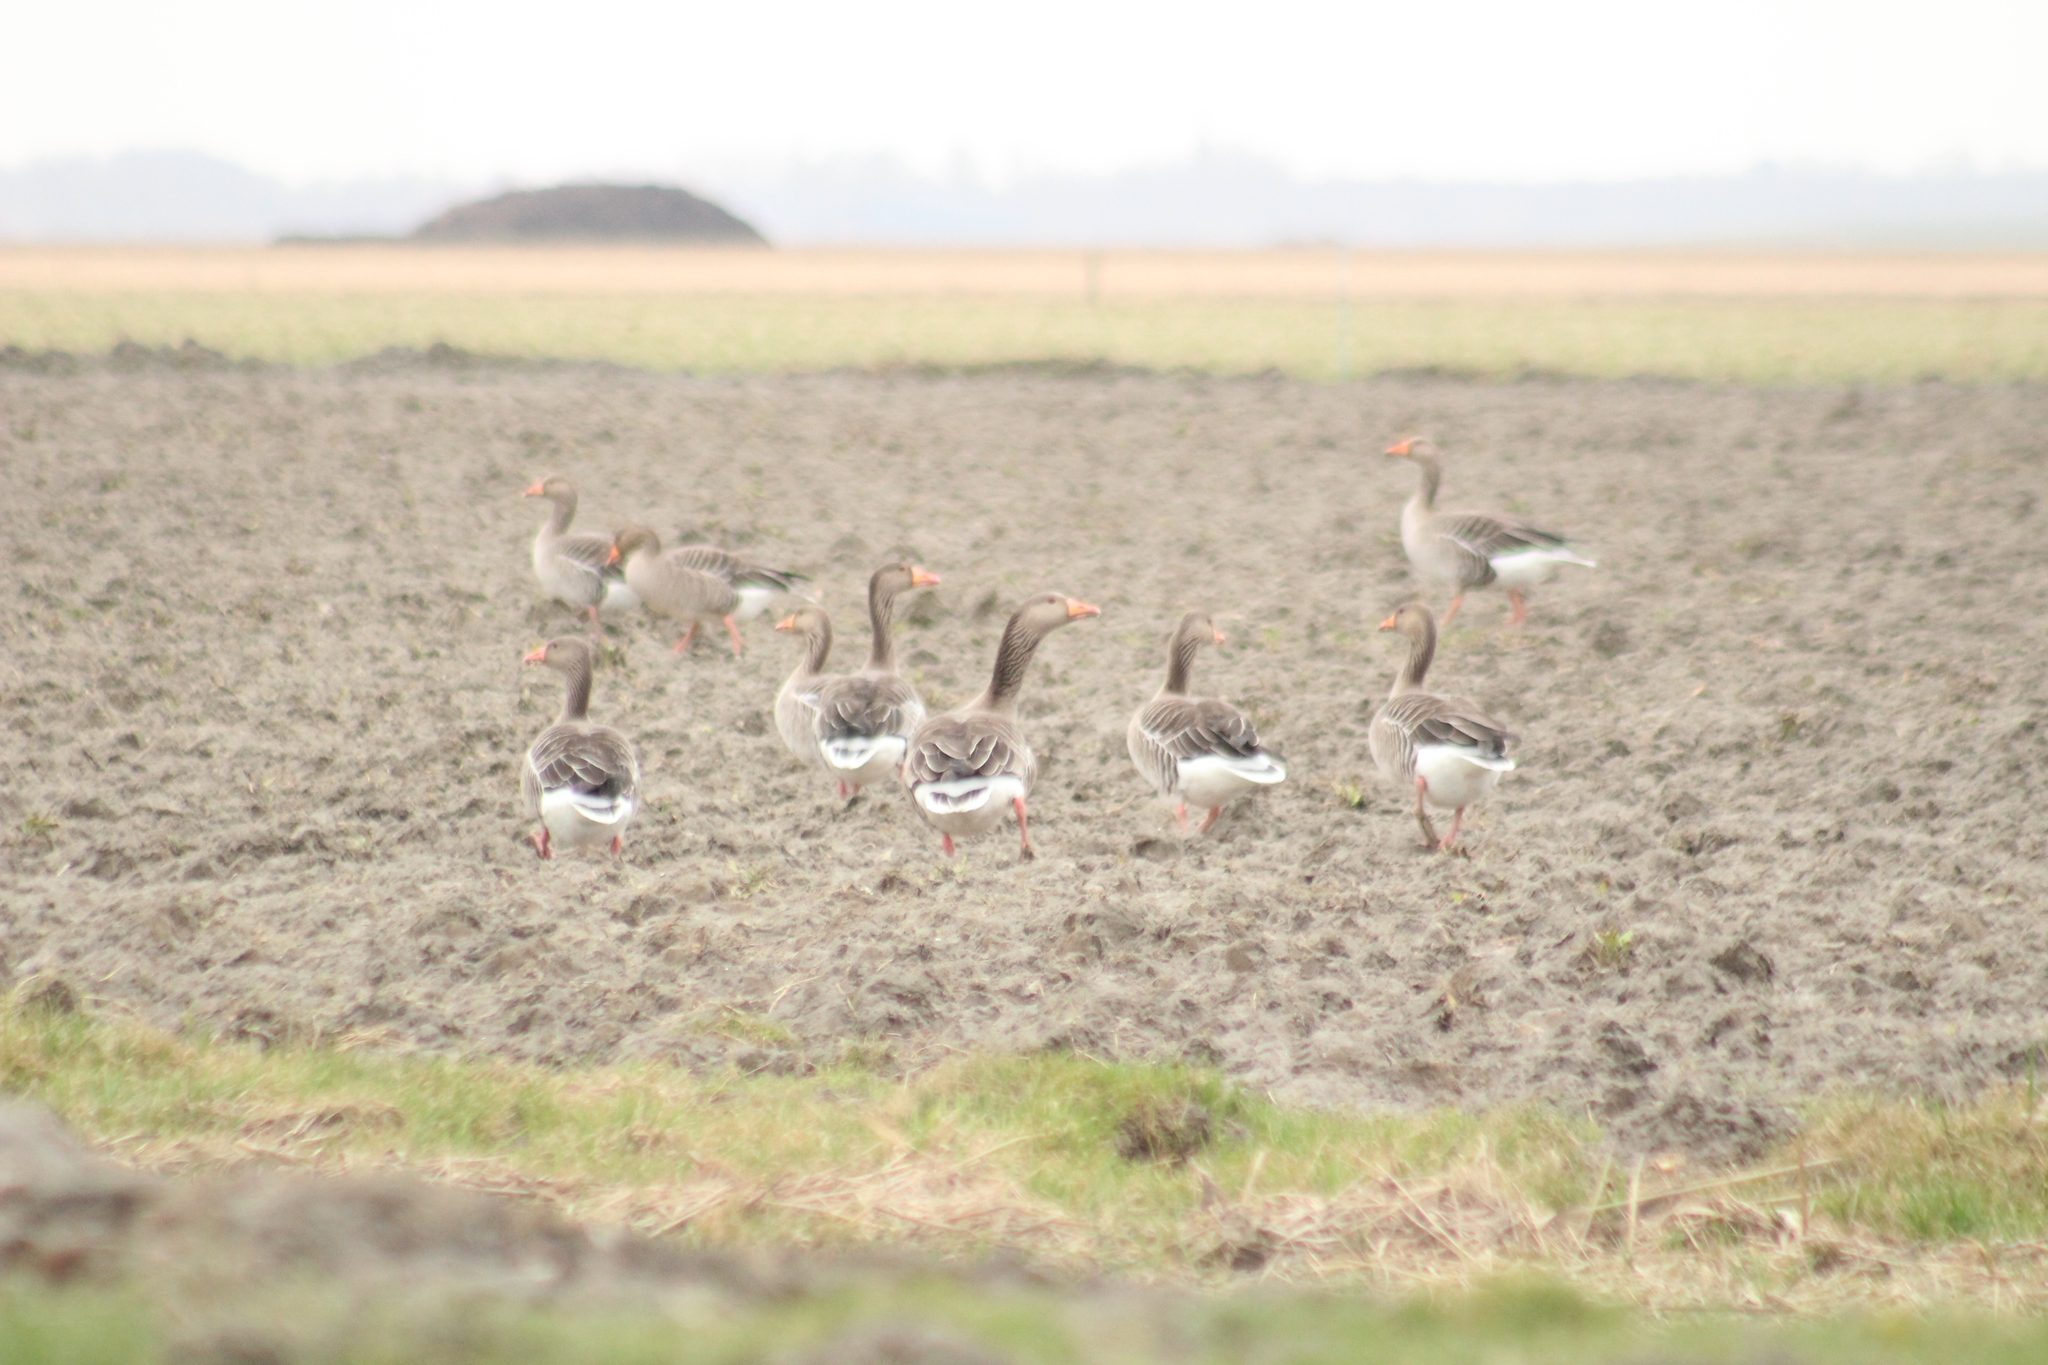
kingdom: Animalia
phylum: Chordata
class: Aves
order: Anseriformes
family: Anatidae
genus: Anser
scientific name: Anser anser
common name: Greylag goose
